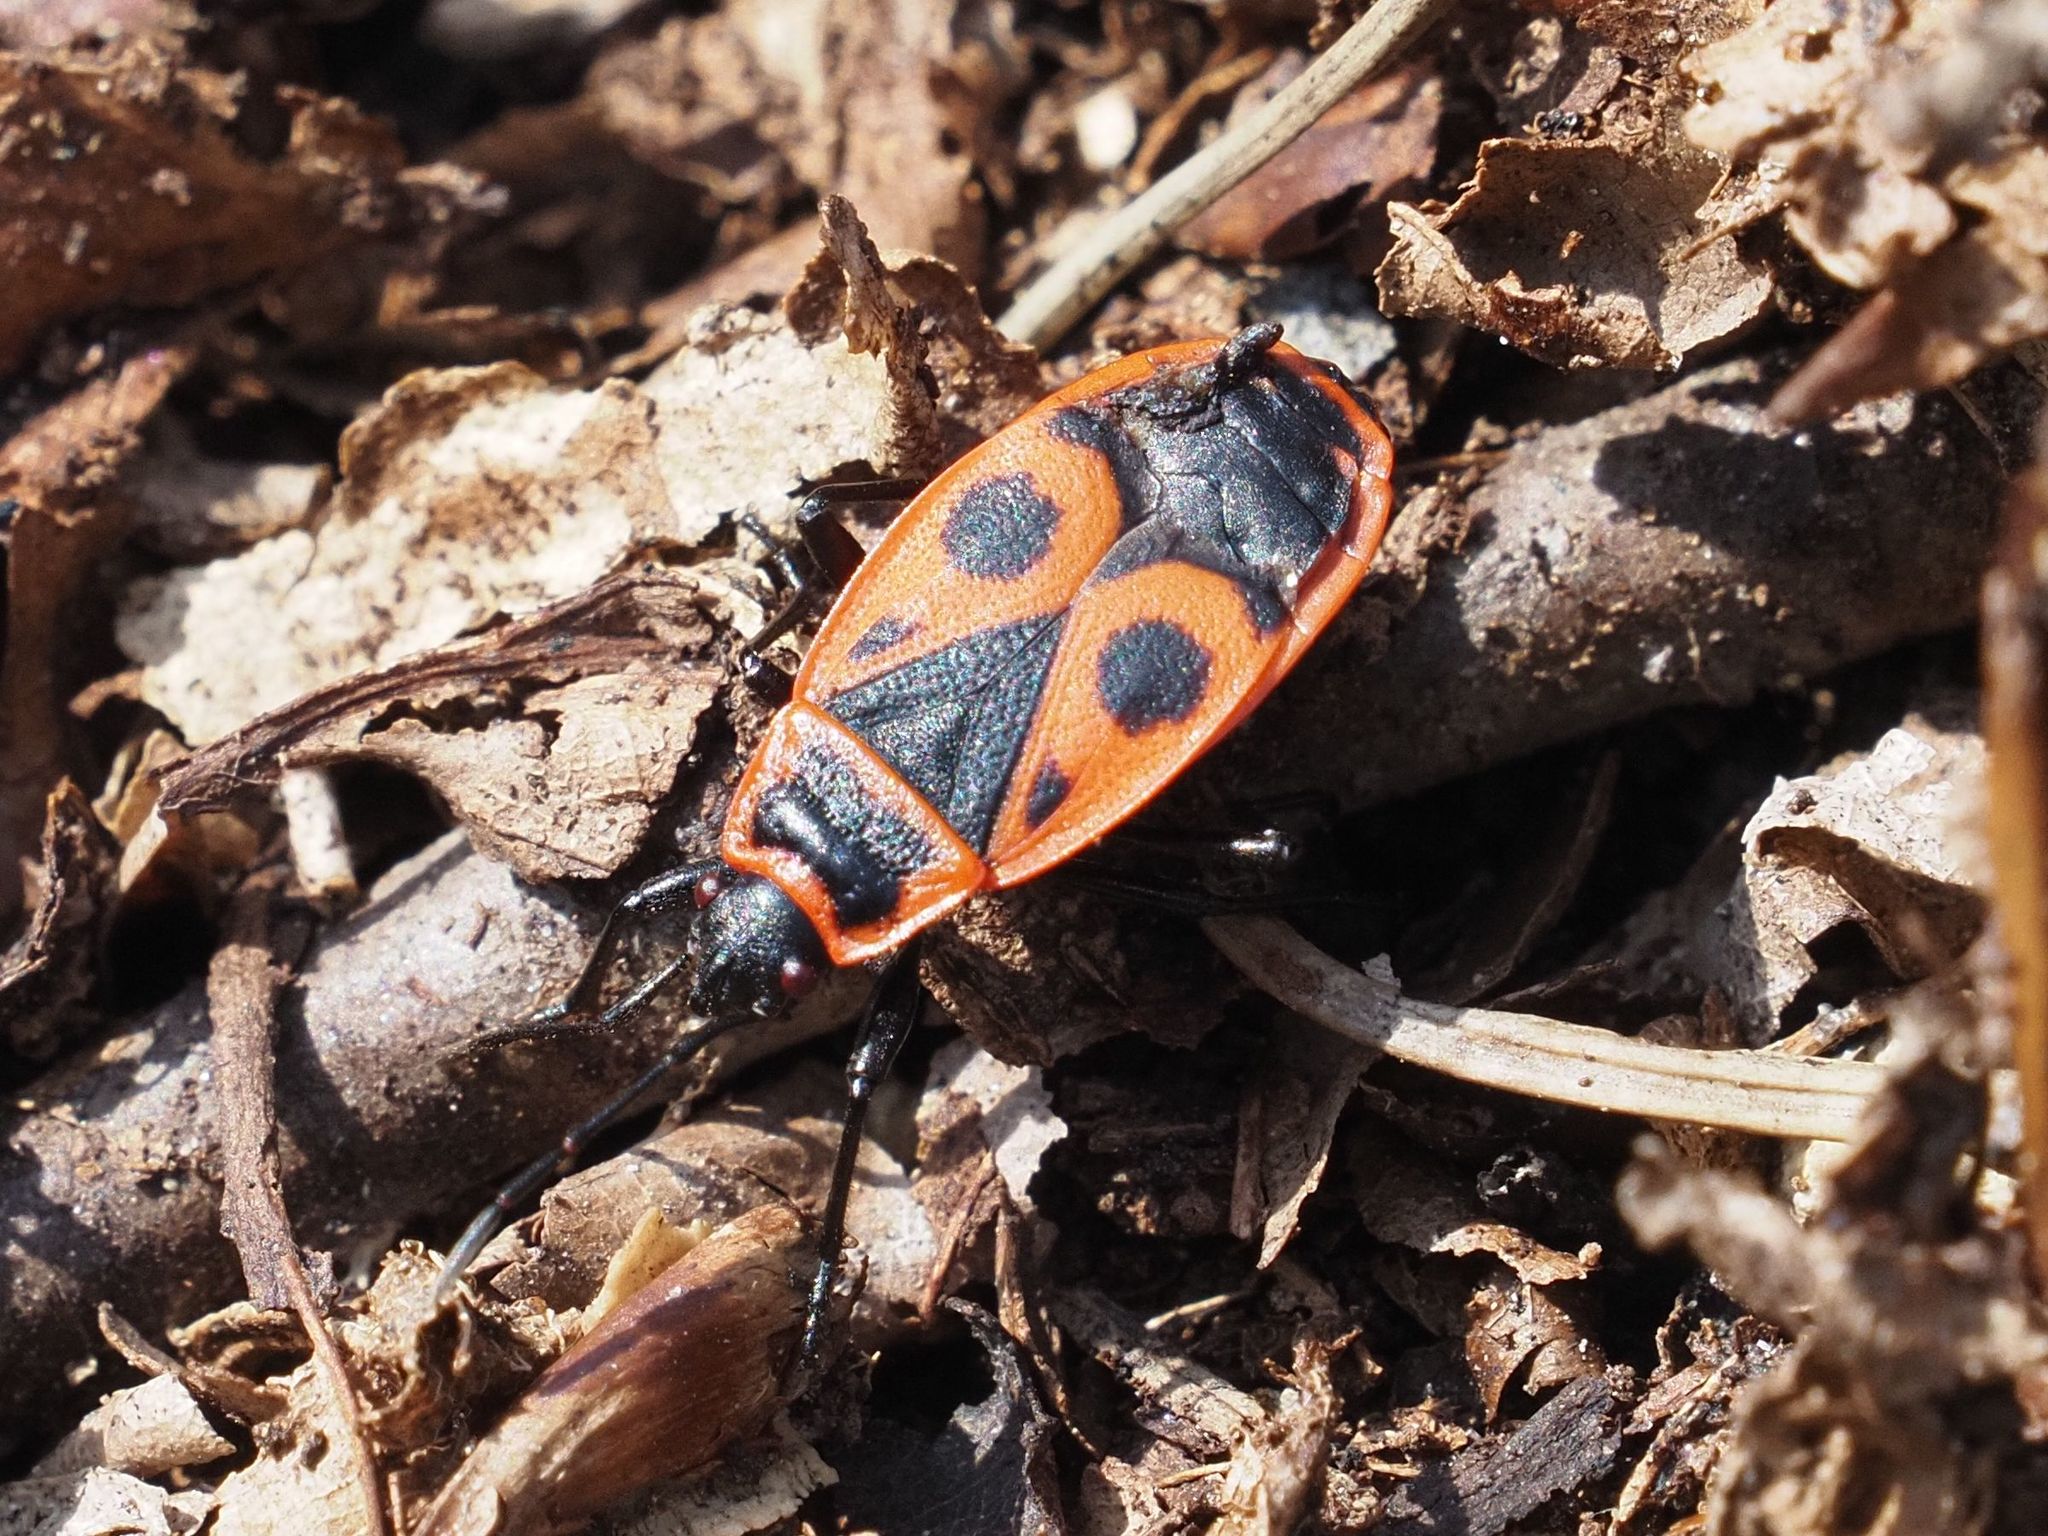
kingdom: Animalia
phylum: Arthropoda
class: Insecta
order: Hemiptera
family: Pyrrhocoridae
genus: Pyrrhocoris
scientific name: Pyrrhocoris apterus
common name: Firebug
